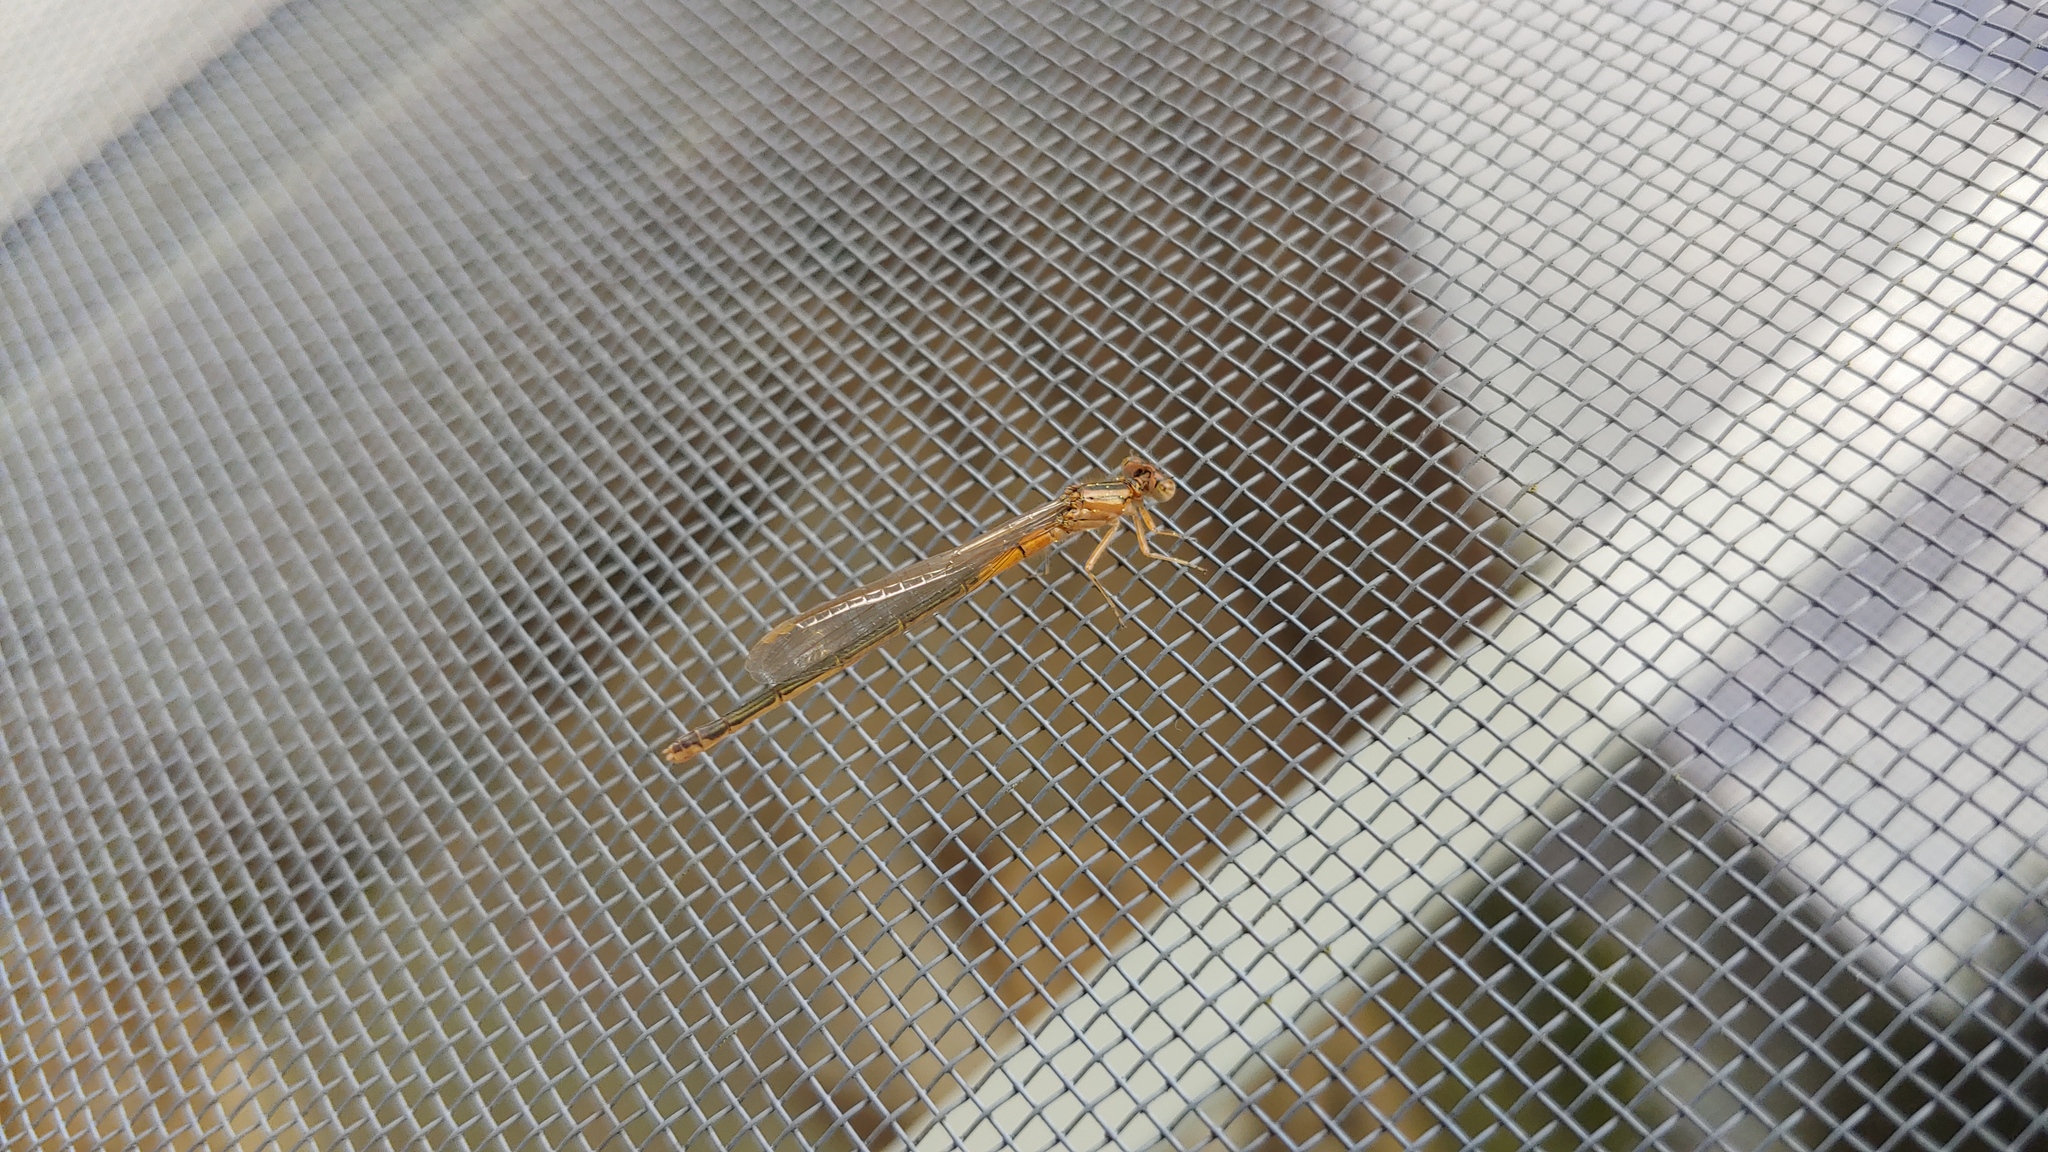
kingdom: Animalia
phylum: Arthropoda
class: Insecta
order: Odonata
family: Coenagrionidae
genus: Ischnura
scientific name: Ischnura verticalis
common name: Eastern forktail
